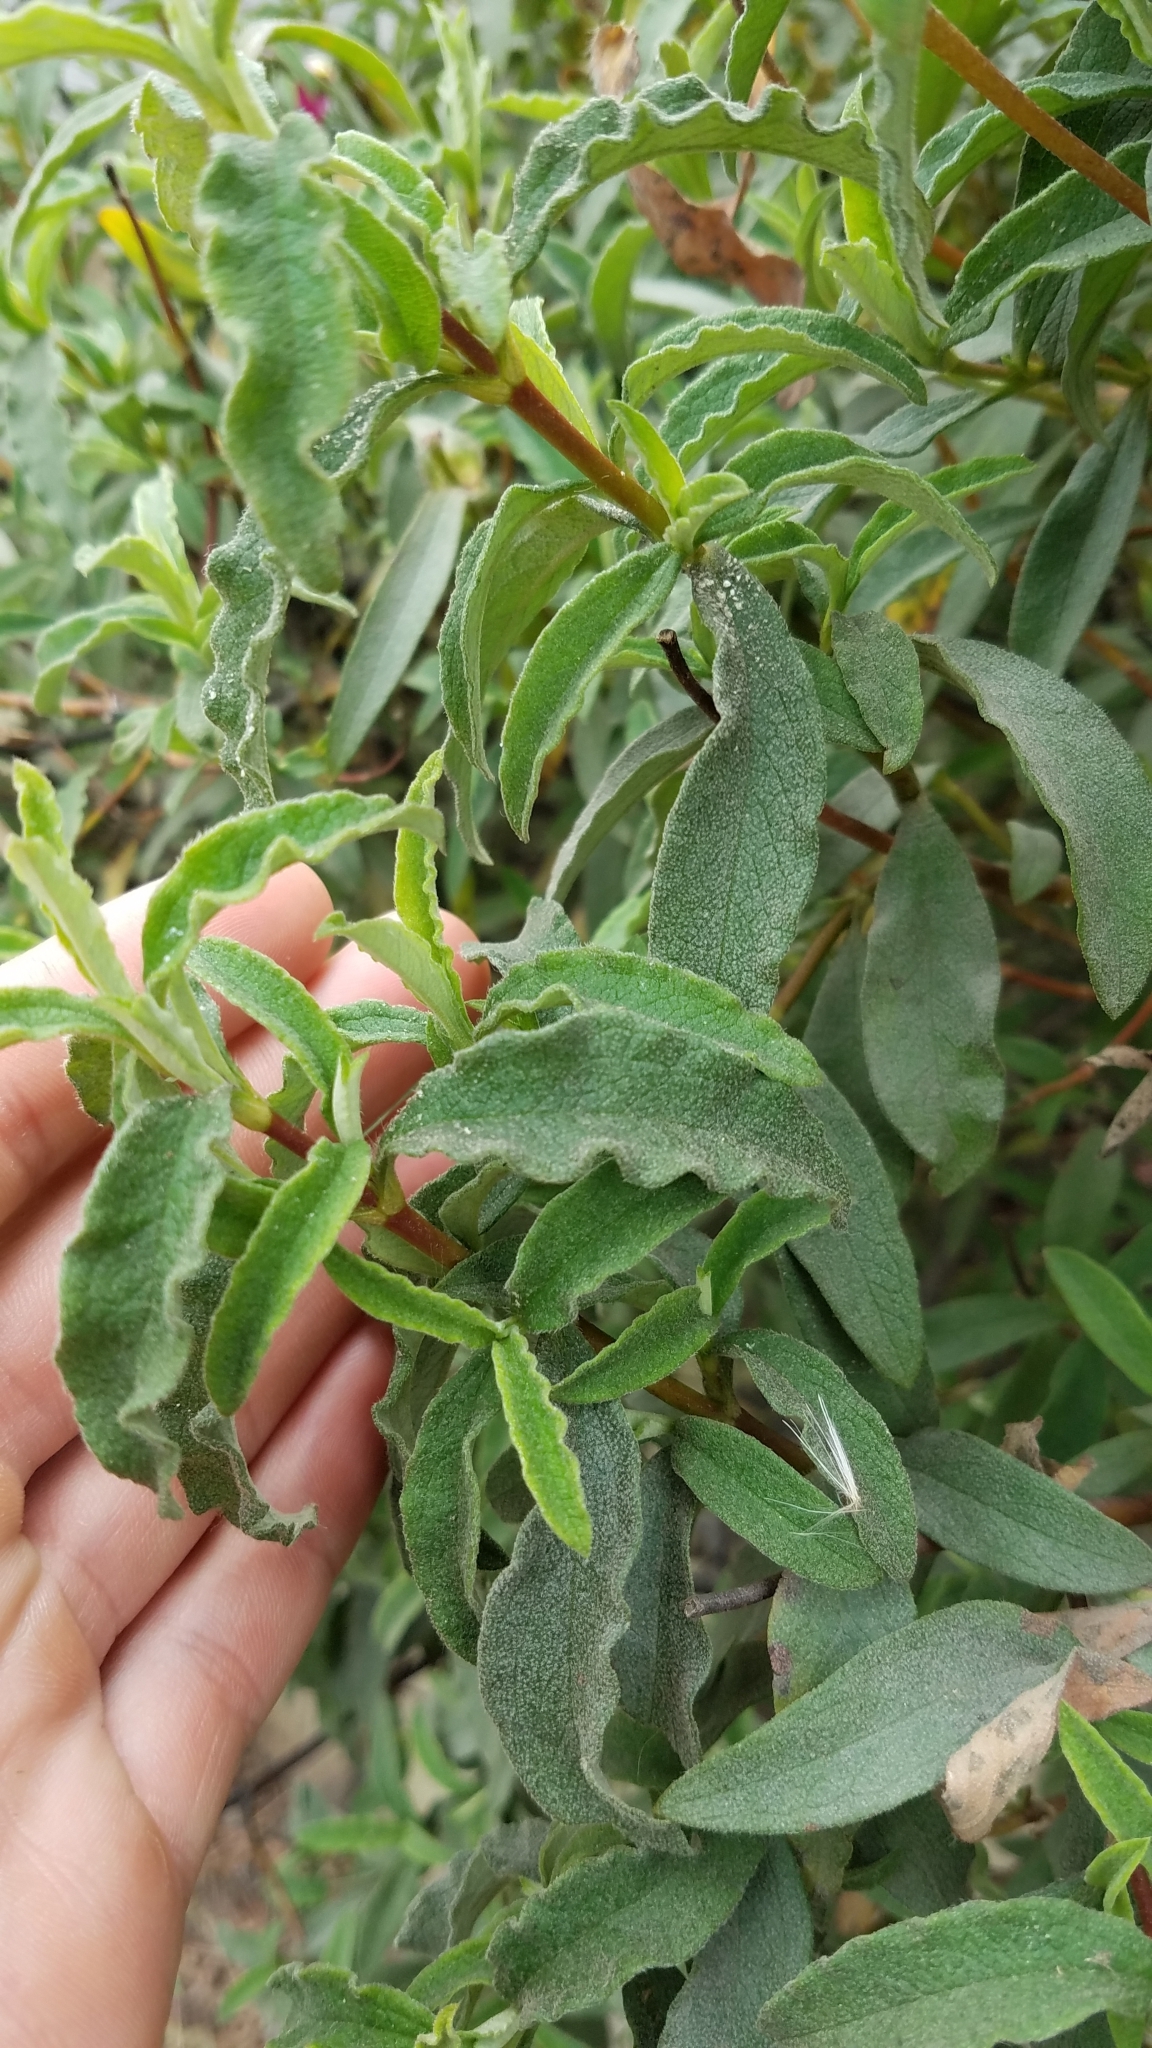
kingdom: Plantae
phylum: Tracheophyta
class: Magnoliopsida
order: Malvales
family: Cistaceae
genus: Cistus
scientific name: Cistus purpureus
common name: Purple cistus
